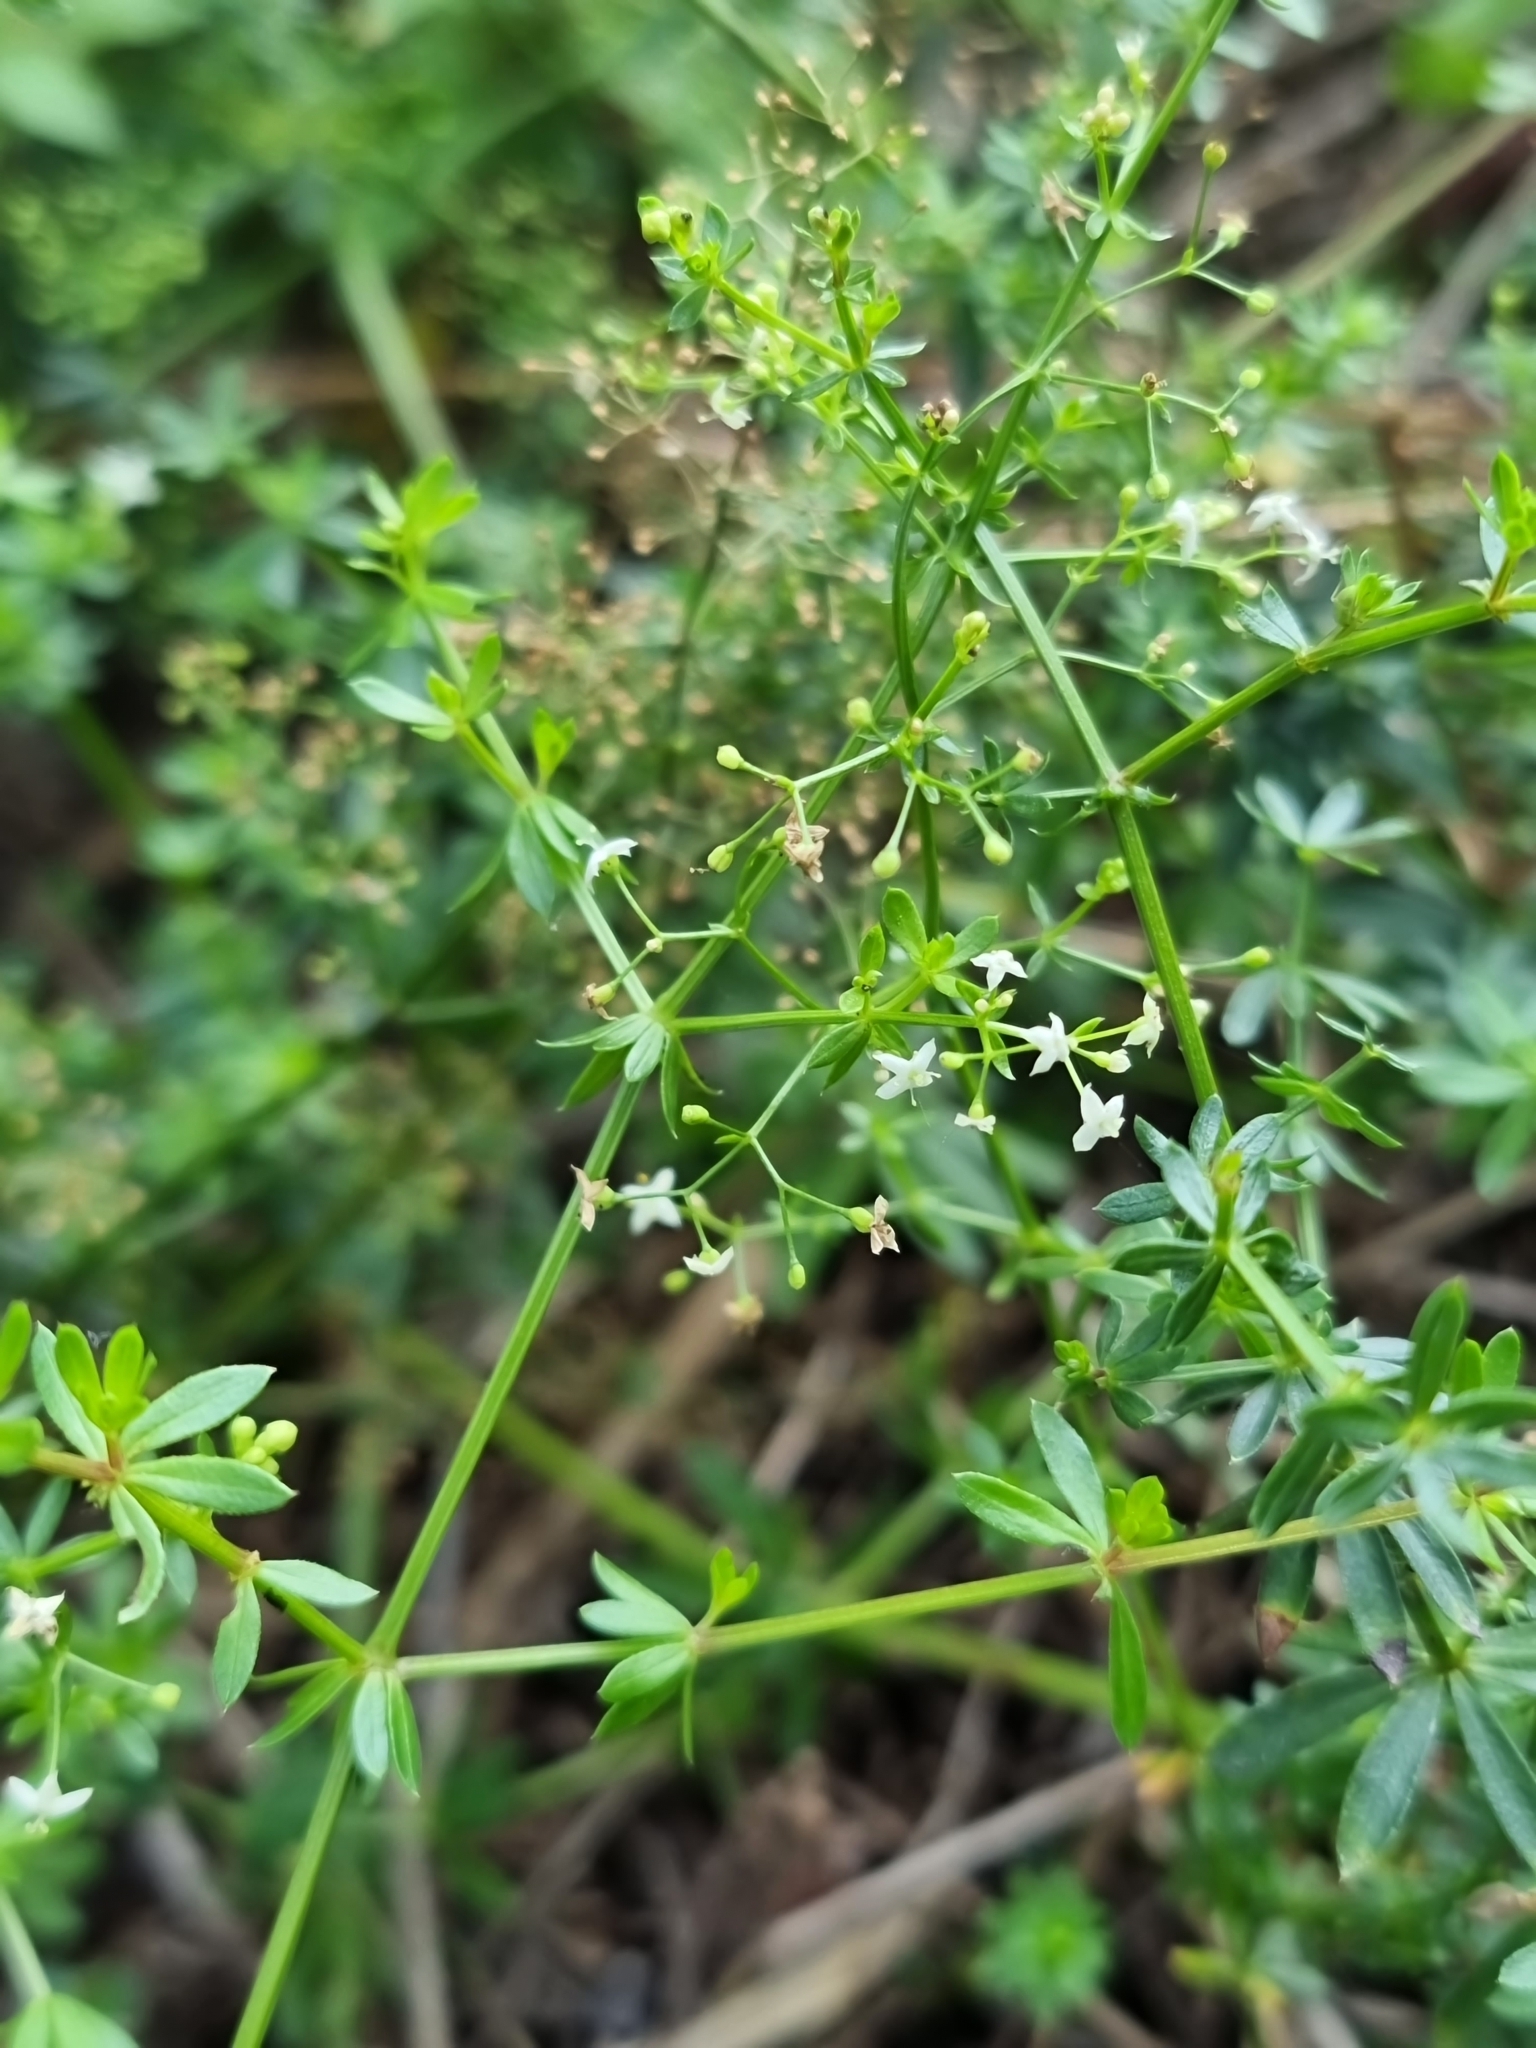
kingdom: Plantae
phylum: Tracheophyta
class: Magnoliopsida
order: Gentianales
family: Rubiaceae
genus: Galium
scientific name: Galium album
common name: White bedstraw
